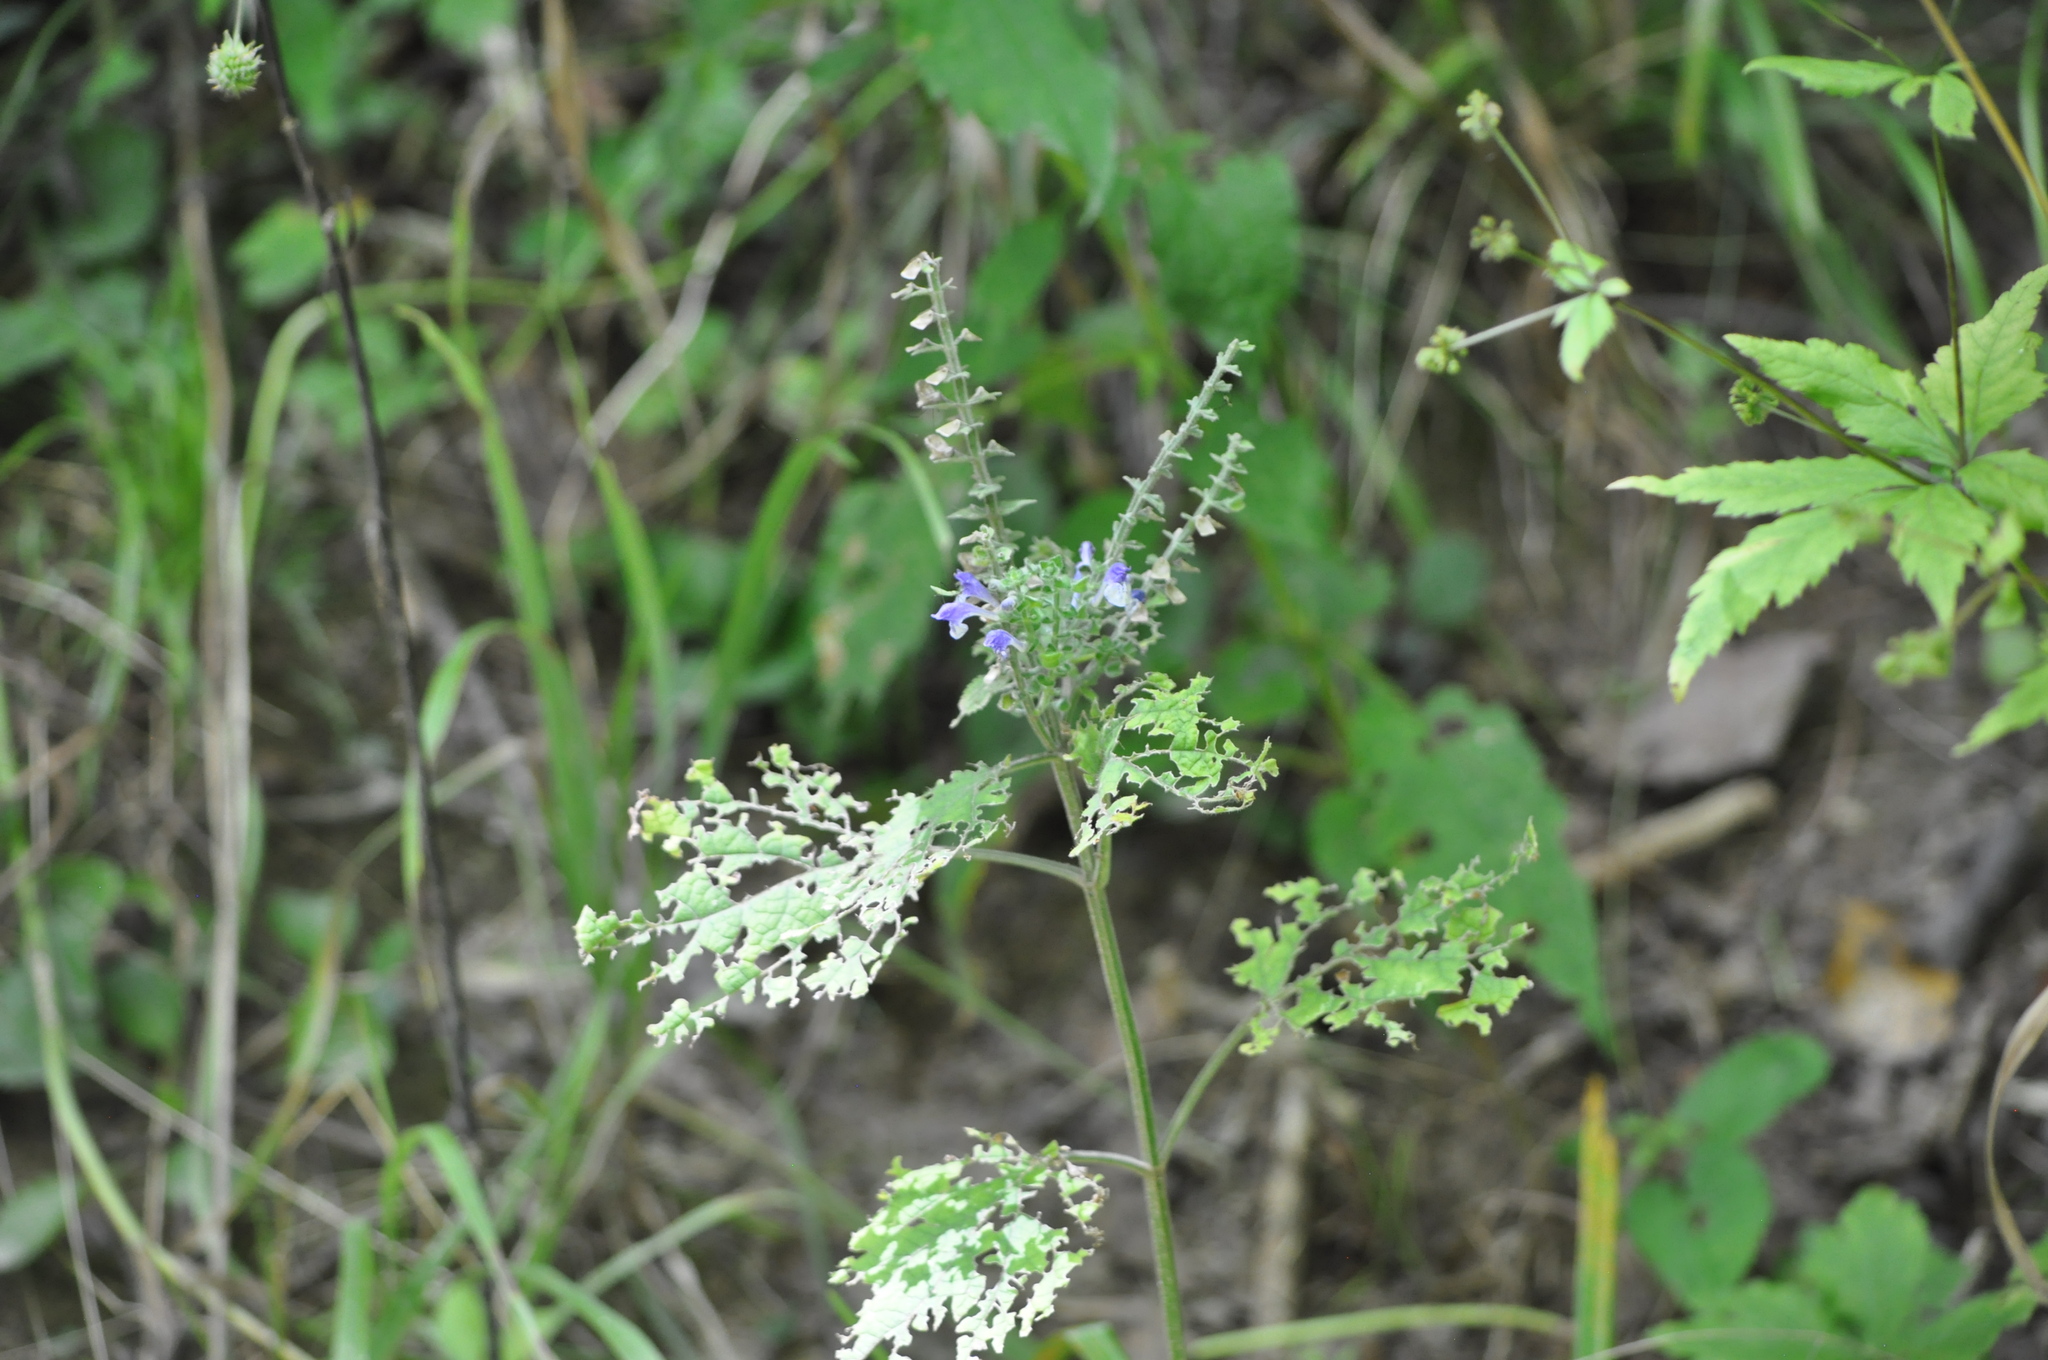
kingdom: Plantae
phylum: Tracheophyta
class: Magnoliopsida
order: Lamiales
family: Lamiaceae
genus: Scutellaria
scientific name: Scutellaria ovata
